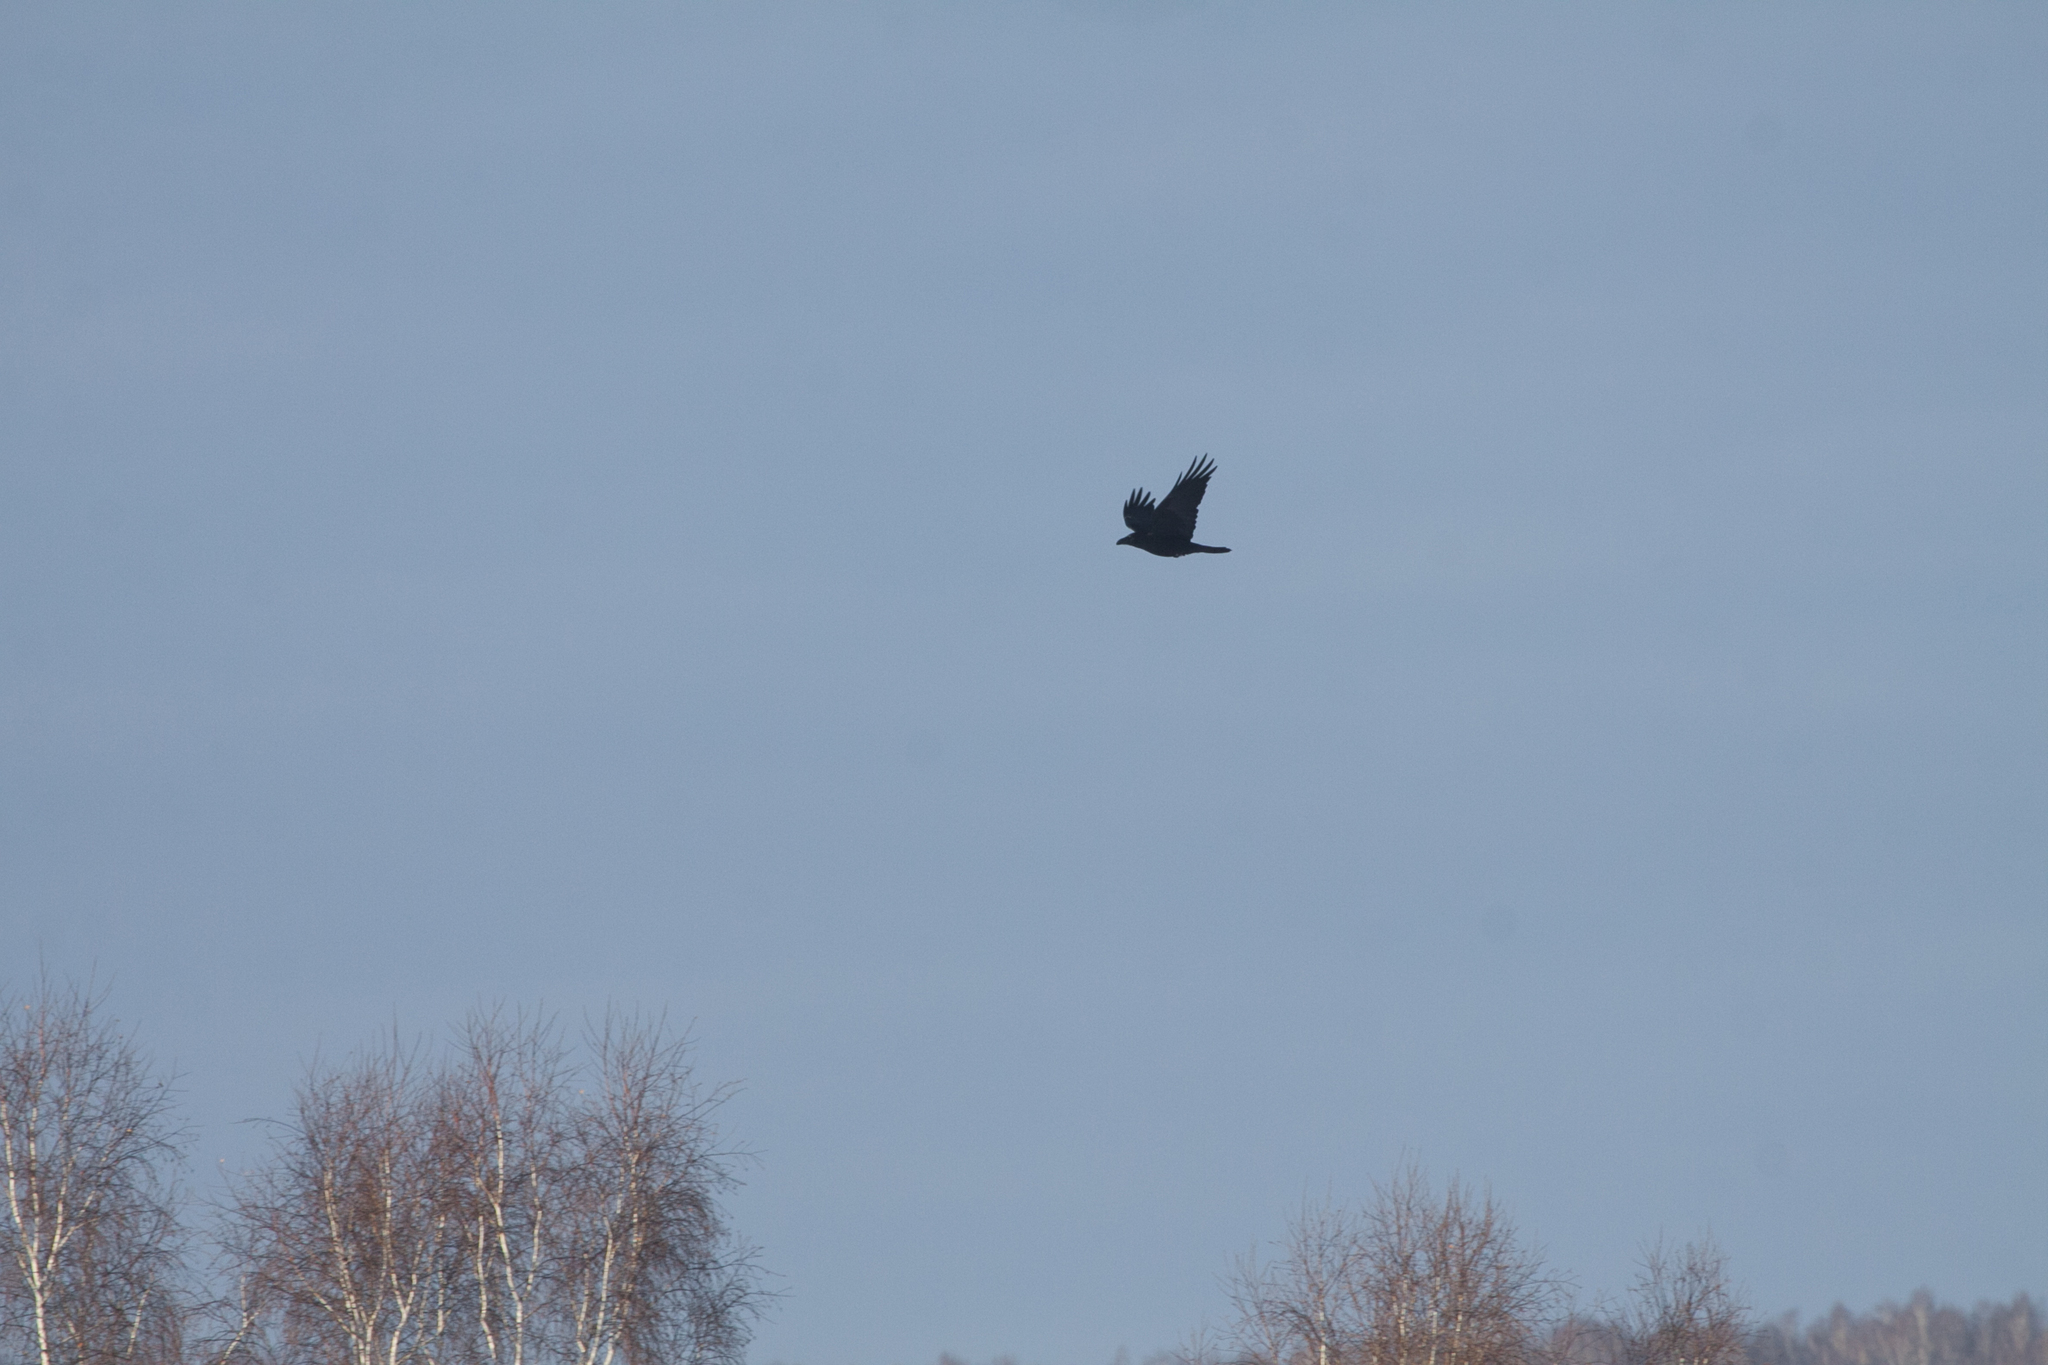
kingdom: Animalia
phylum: Chordata
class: Aves
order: Passeriformes
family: Corvidae
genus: Corvus
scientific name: Corvus corax
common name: Common raven
